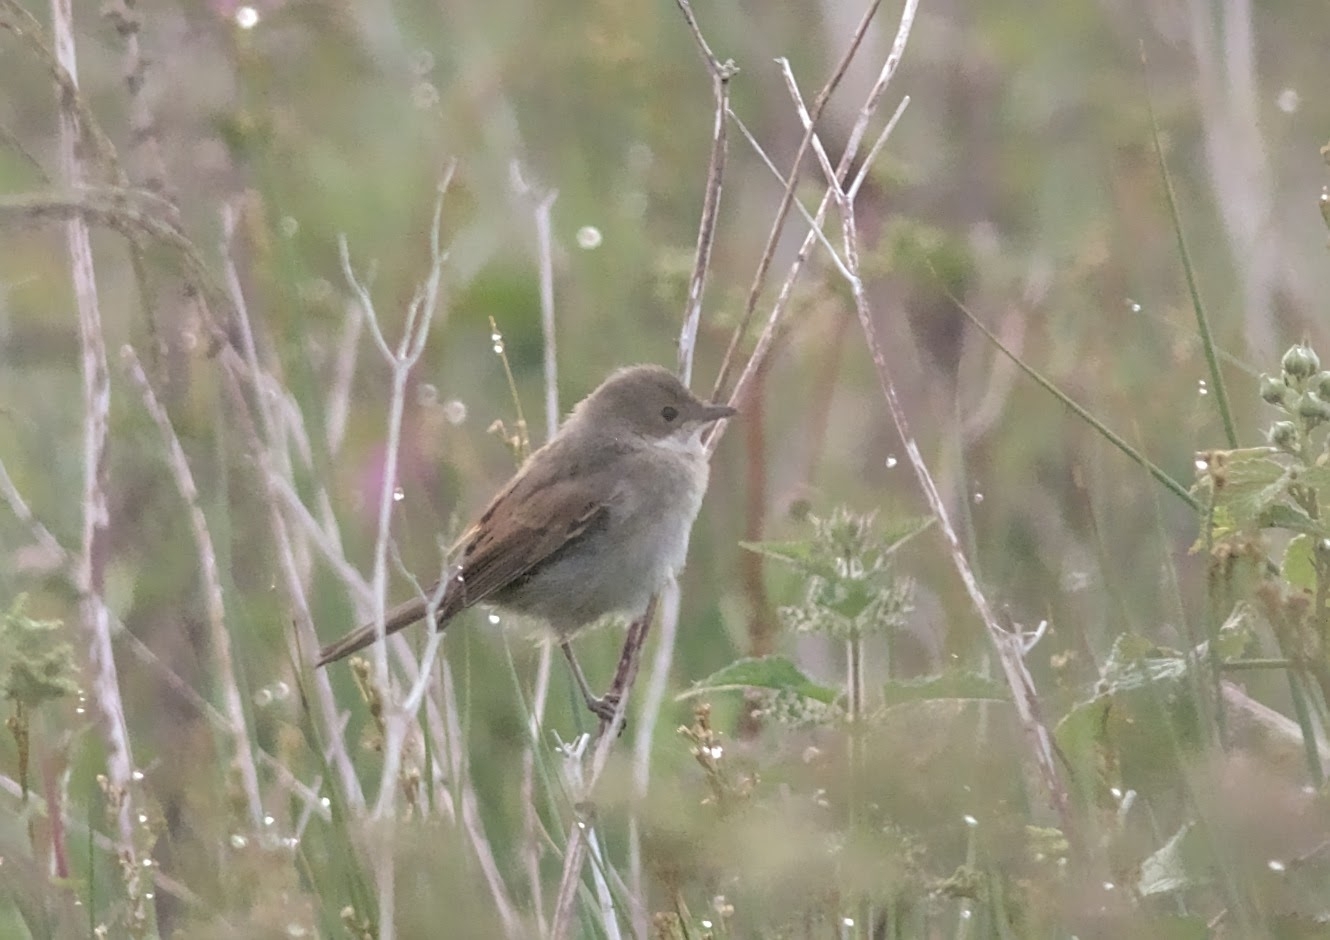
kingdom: Animalia
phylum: Chordata
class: Aves
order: Passeriformes
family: Sylviidae
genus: Sylvia
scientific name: Sylvia communis
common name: Common whitethroat
